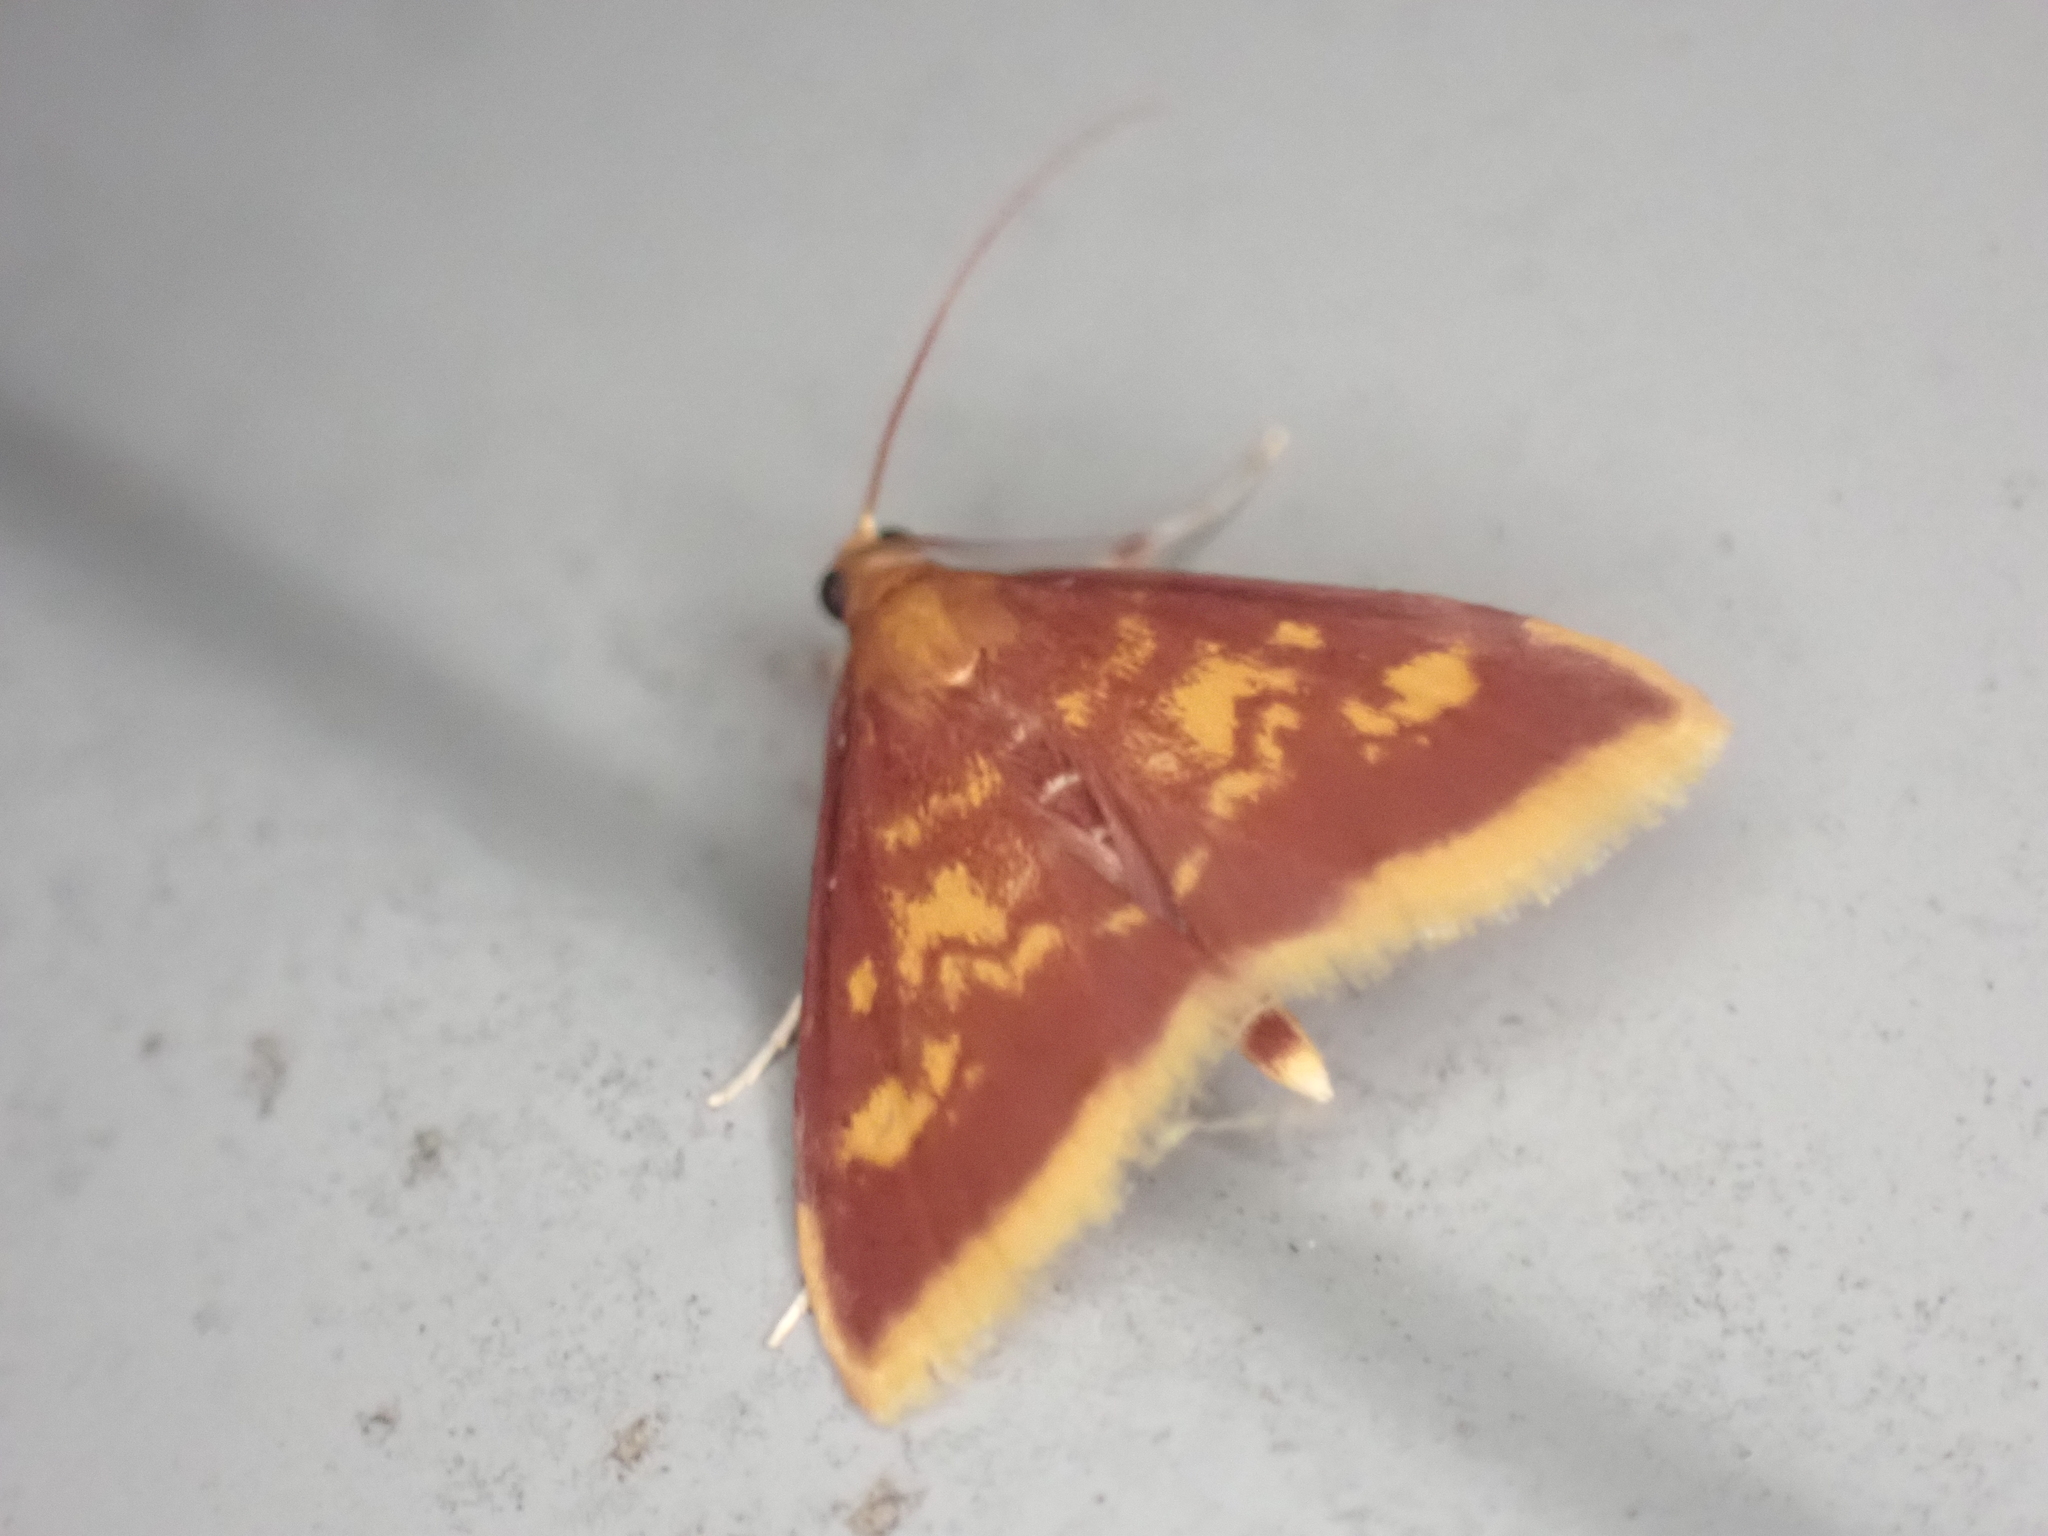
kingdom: Animalia
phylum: Arthropoda
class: Insecta
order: Lepidoptera
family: Crambidae
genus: Pyrausta
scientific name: Pyrausta acrionalis
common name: Mint-loving pyrausta moth
